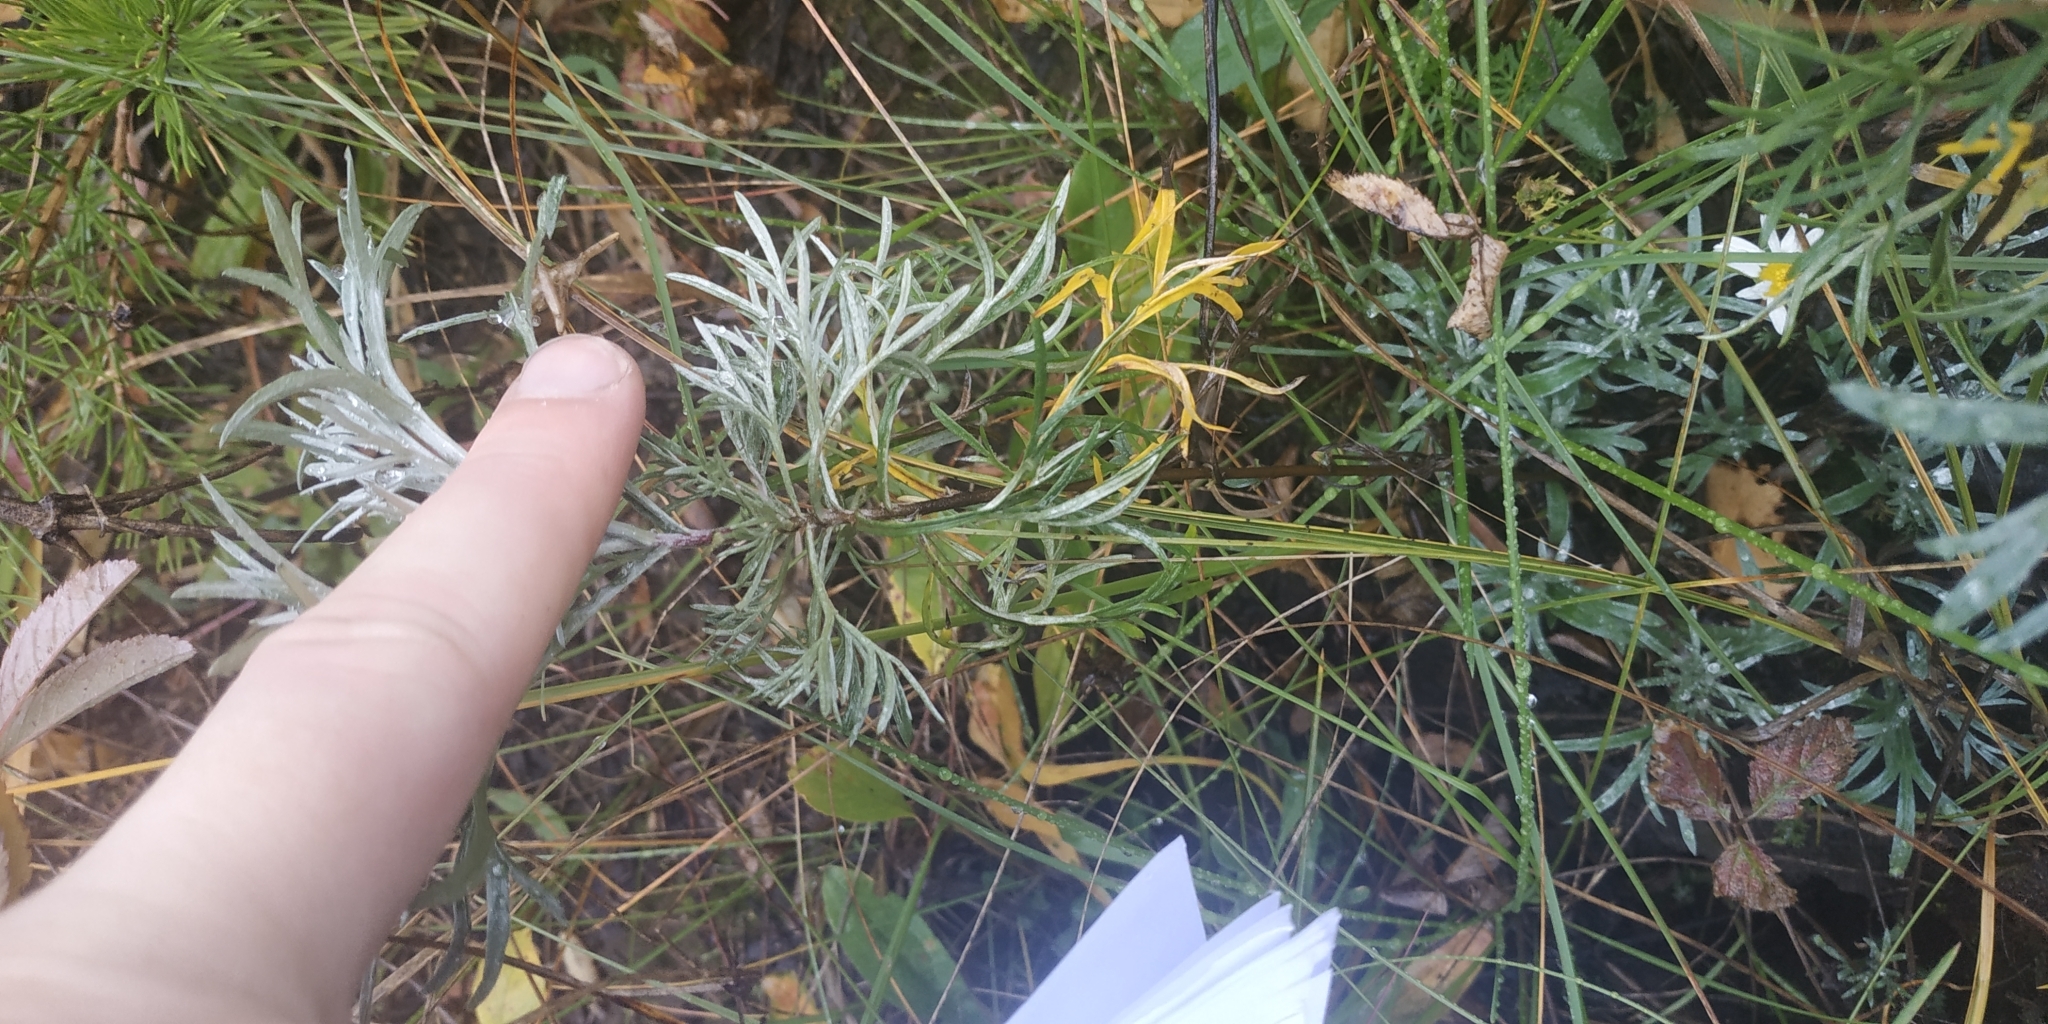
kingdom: Plantae
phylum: Tracheophyta
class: Magnoliopsida
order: Asterales
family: Asteraceae
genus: Artemisia
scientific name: Artemisia sericea
